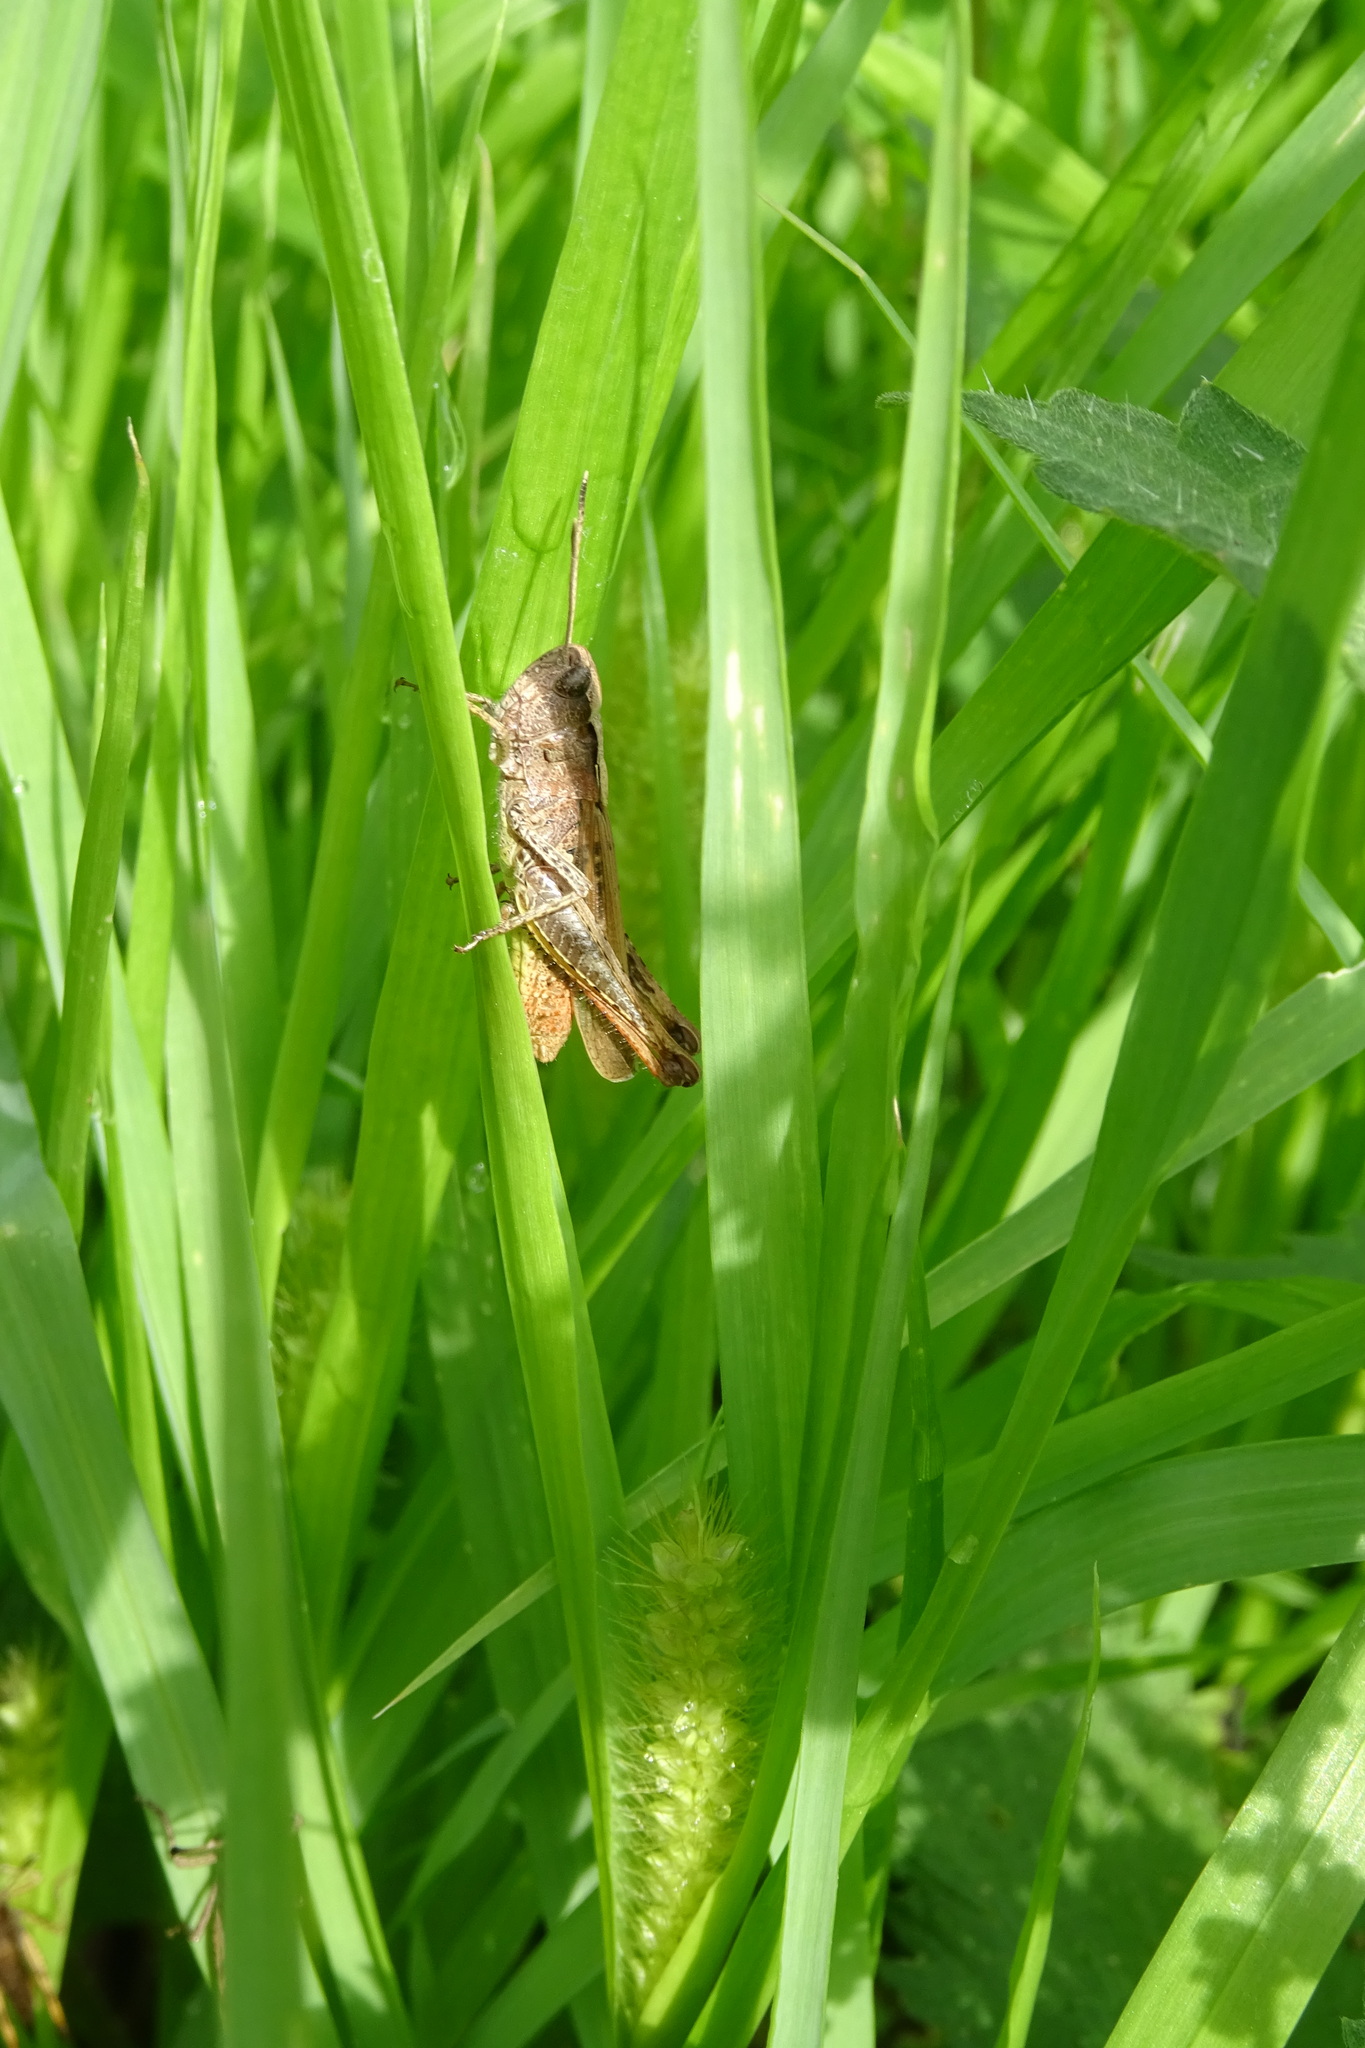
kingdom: Animalia
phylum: Arthropoda
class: Insecta
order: Orthoptera
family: Acrididae
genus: Gomphocerippus
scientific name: Gomphocerippus rufus
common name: Rufous grasshopper
